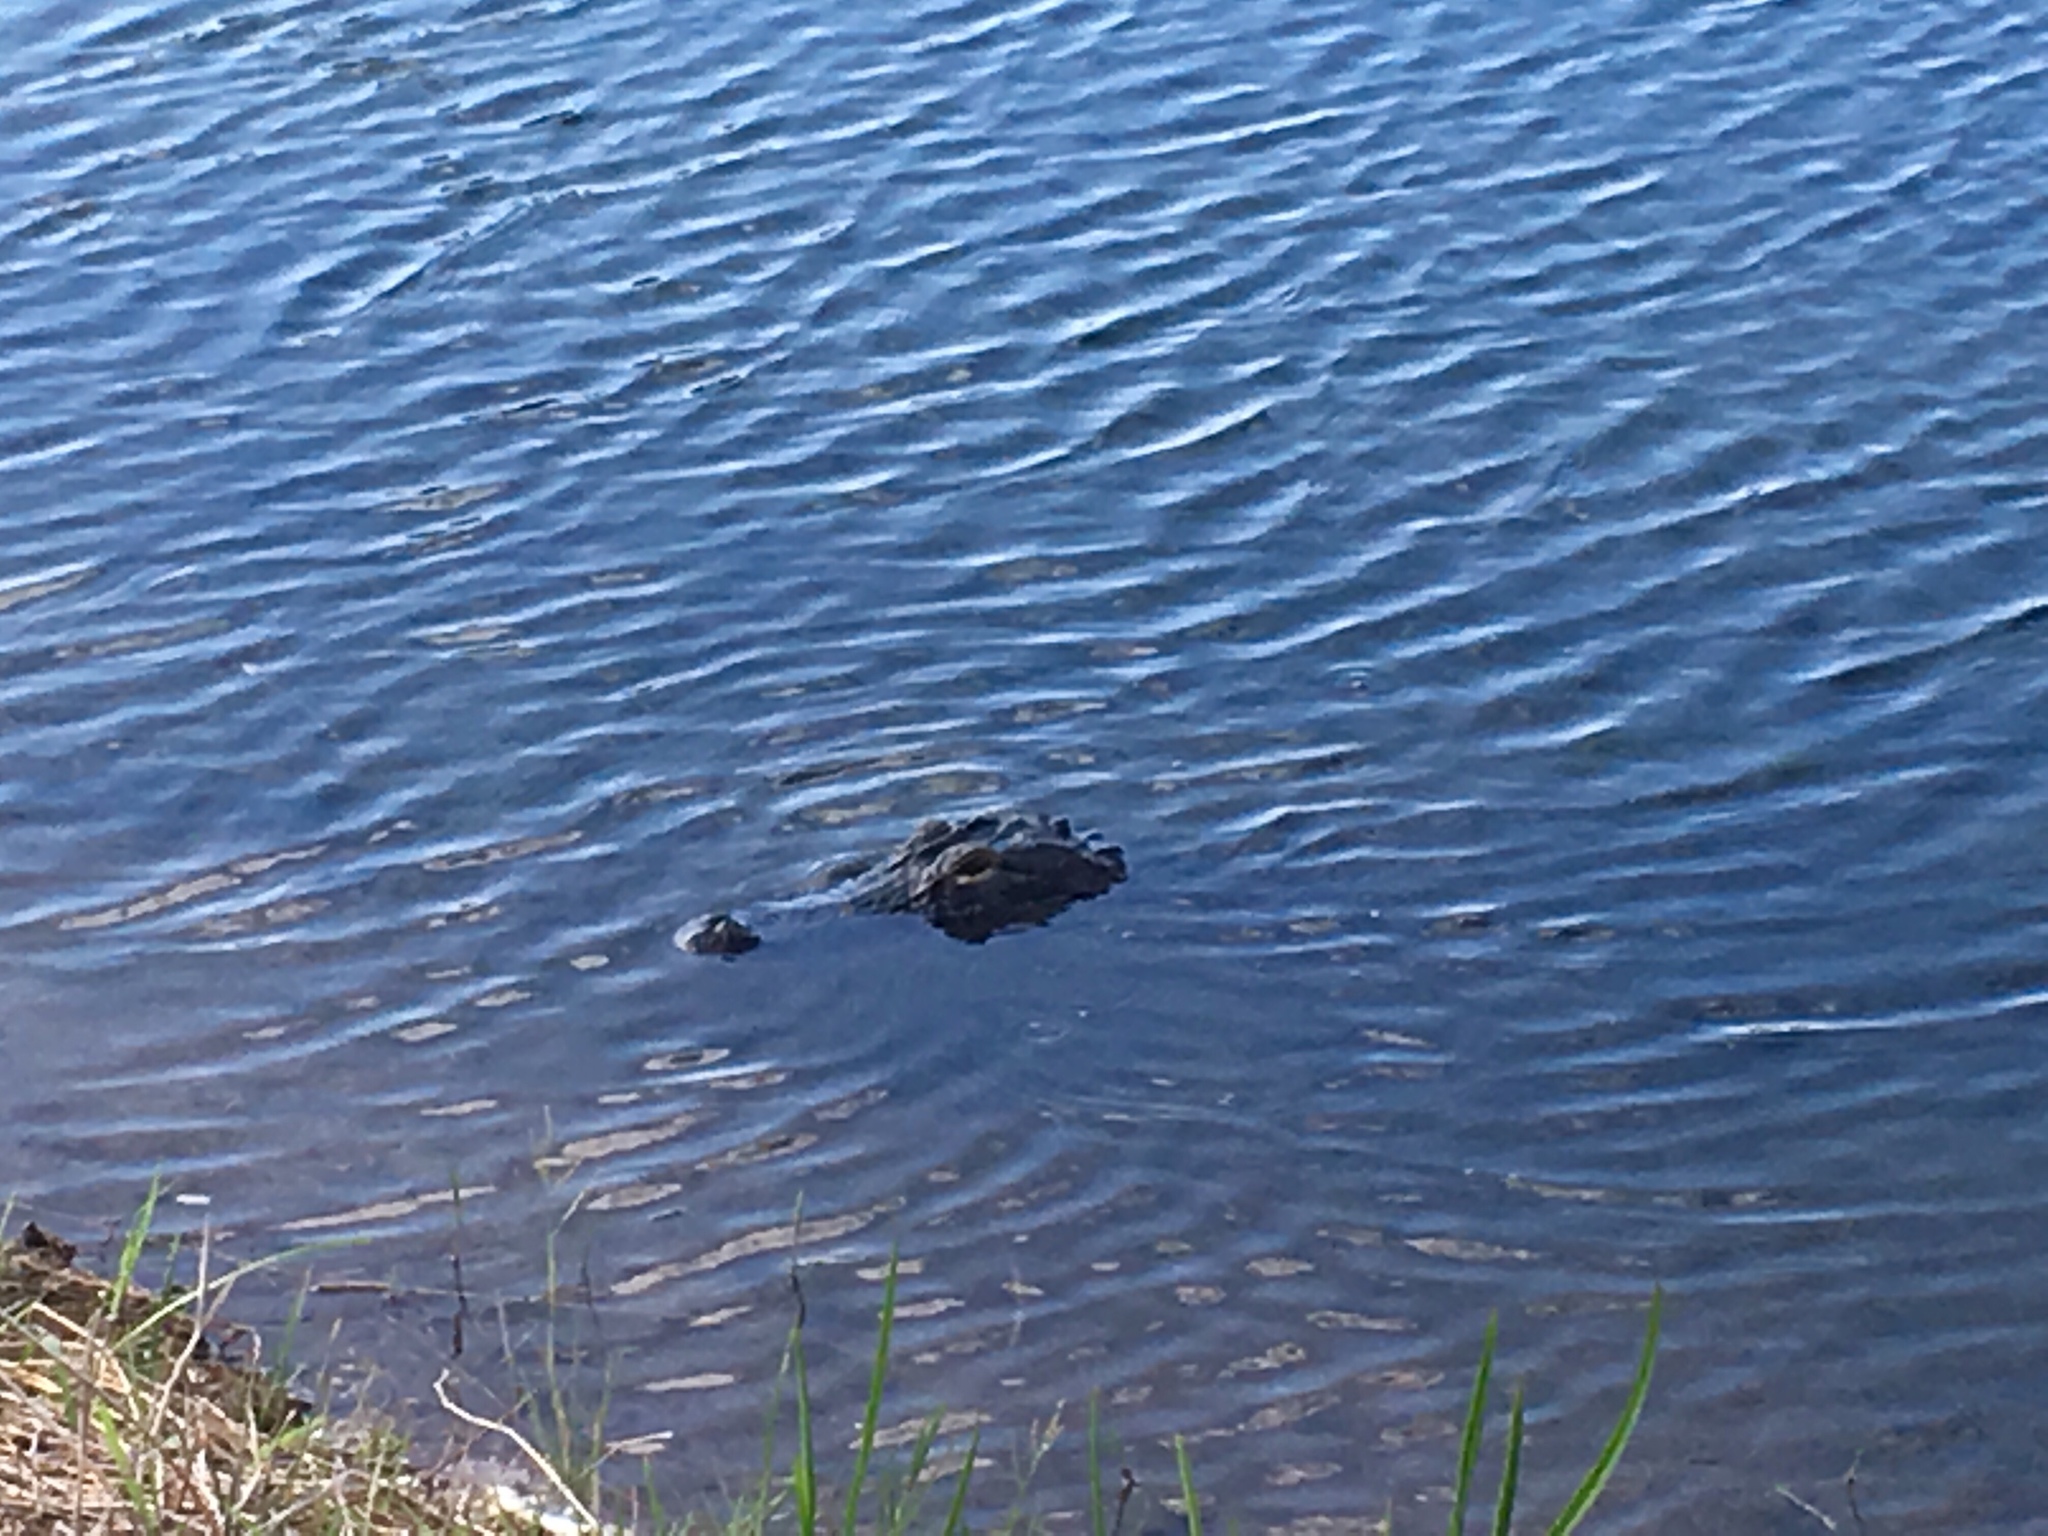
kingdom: Animalia
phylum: Chordata
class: Crocodylia
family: Alligatoridae
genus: Alligator
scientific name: Alligator mississippiensis
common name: American alligator
